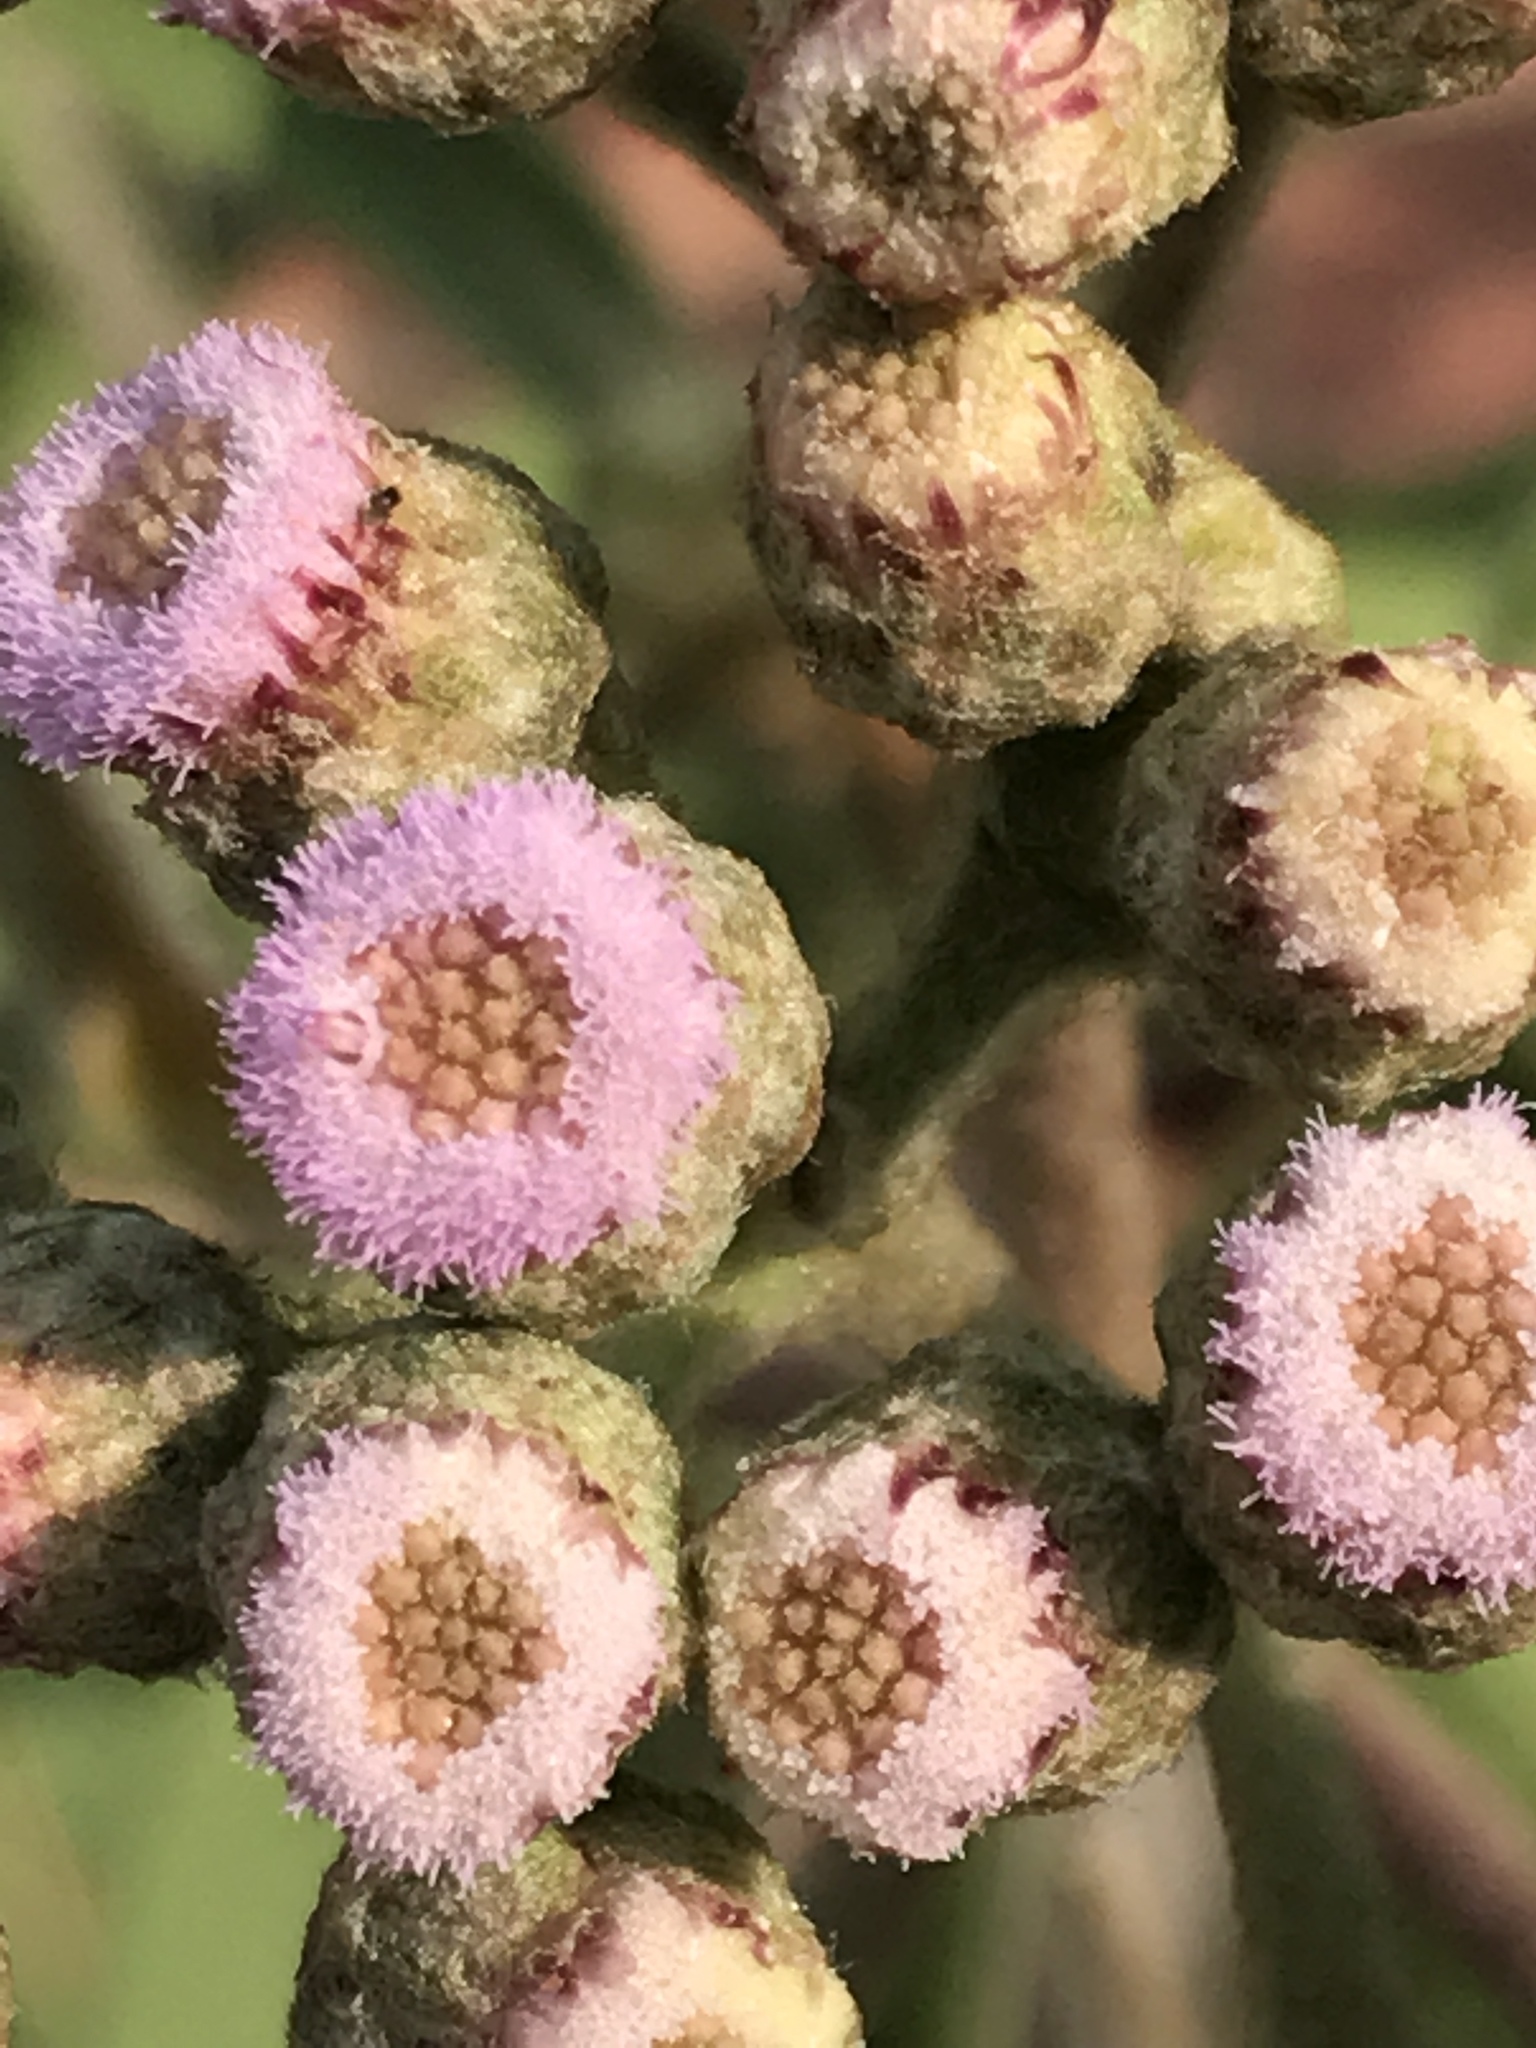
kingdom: Plantae
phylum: Tracheophyta
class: Magnoliopsida
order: Asterales
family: Asteraceae
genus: Pluchea
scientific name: Pluchea carolinensis
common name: Marsh fleabane
